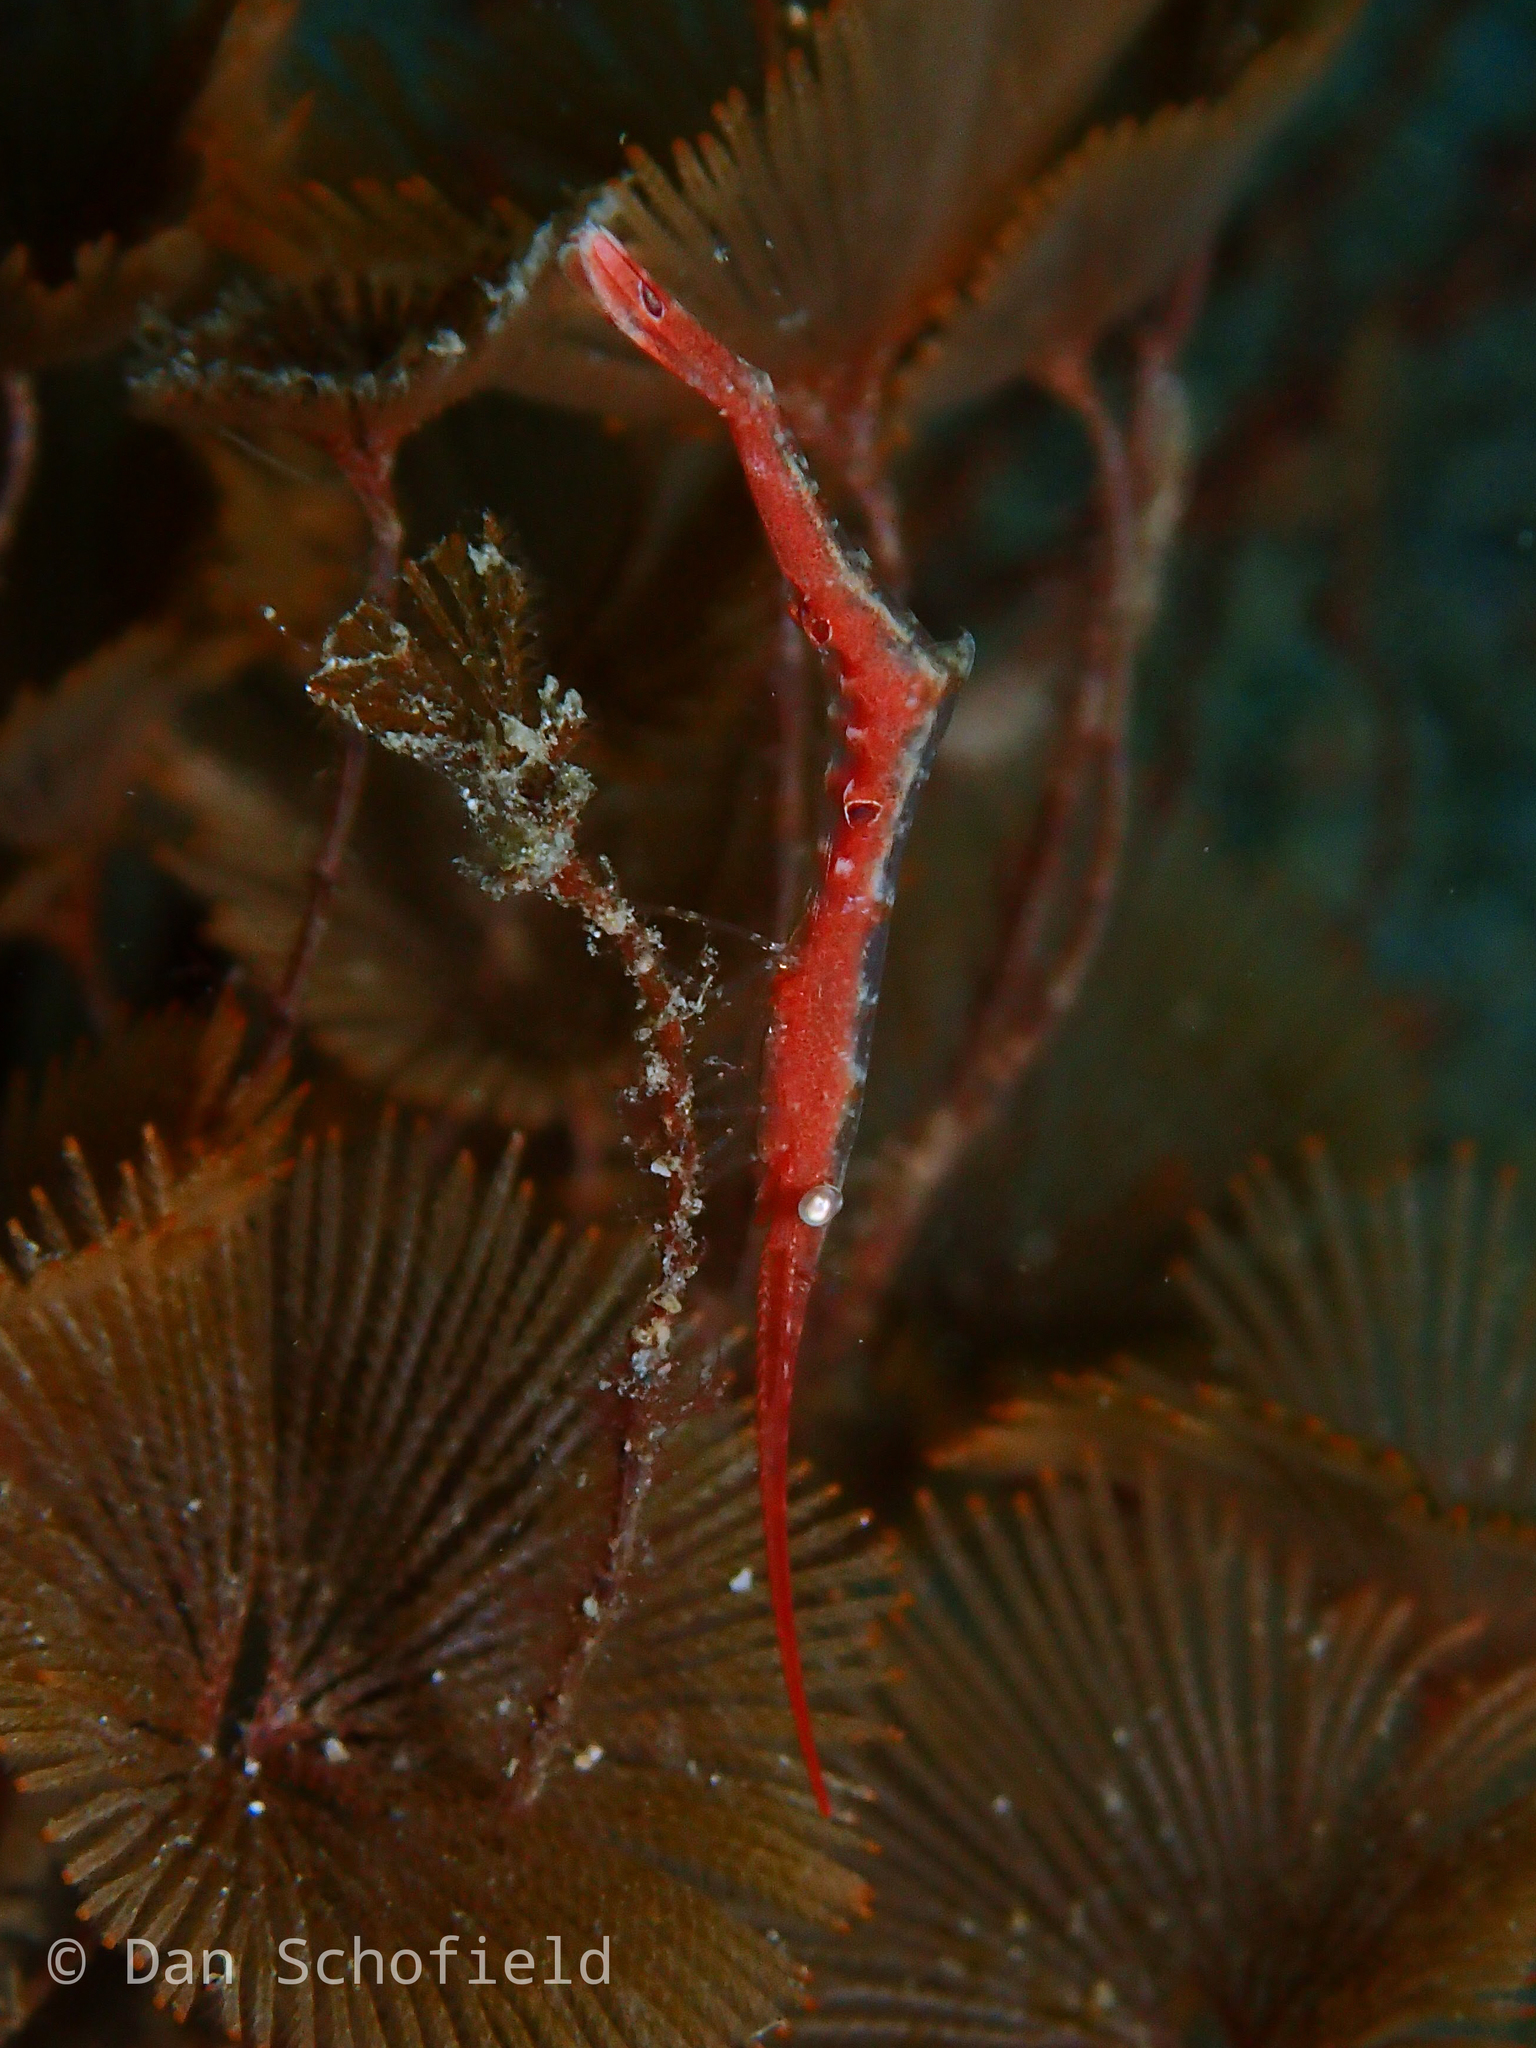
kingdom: Animalia
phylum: Arthropoda
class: Malacostraca
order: Decapoda
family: Hippolytidae
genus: Tozeuma
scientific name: Tozeuma lanceolatum
